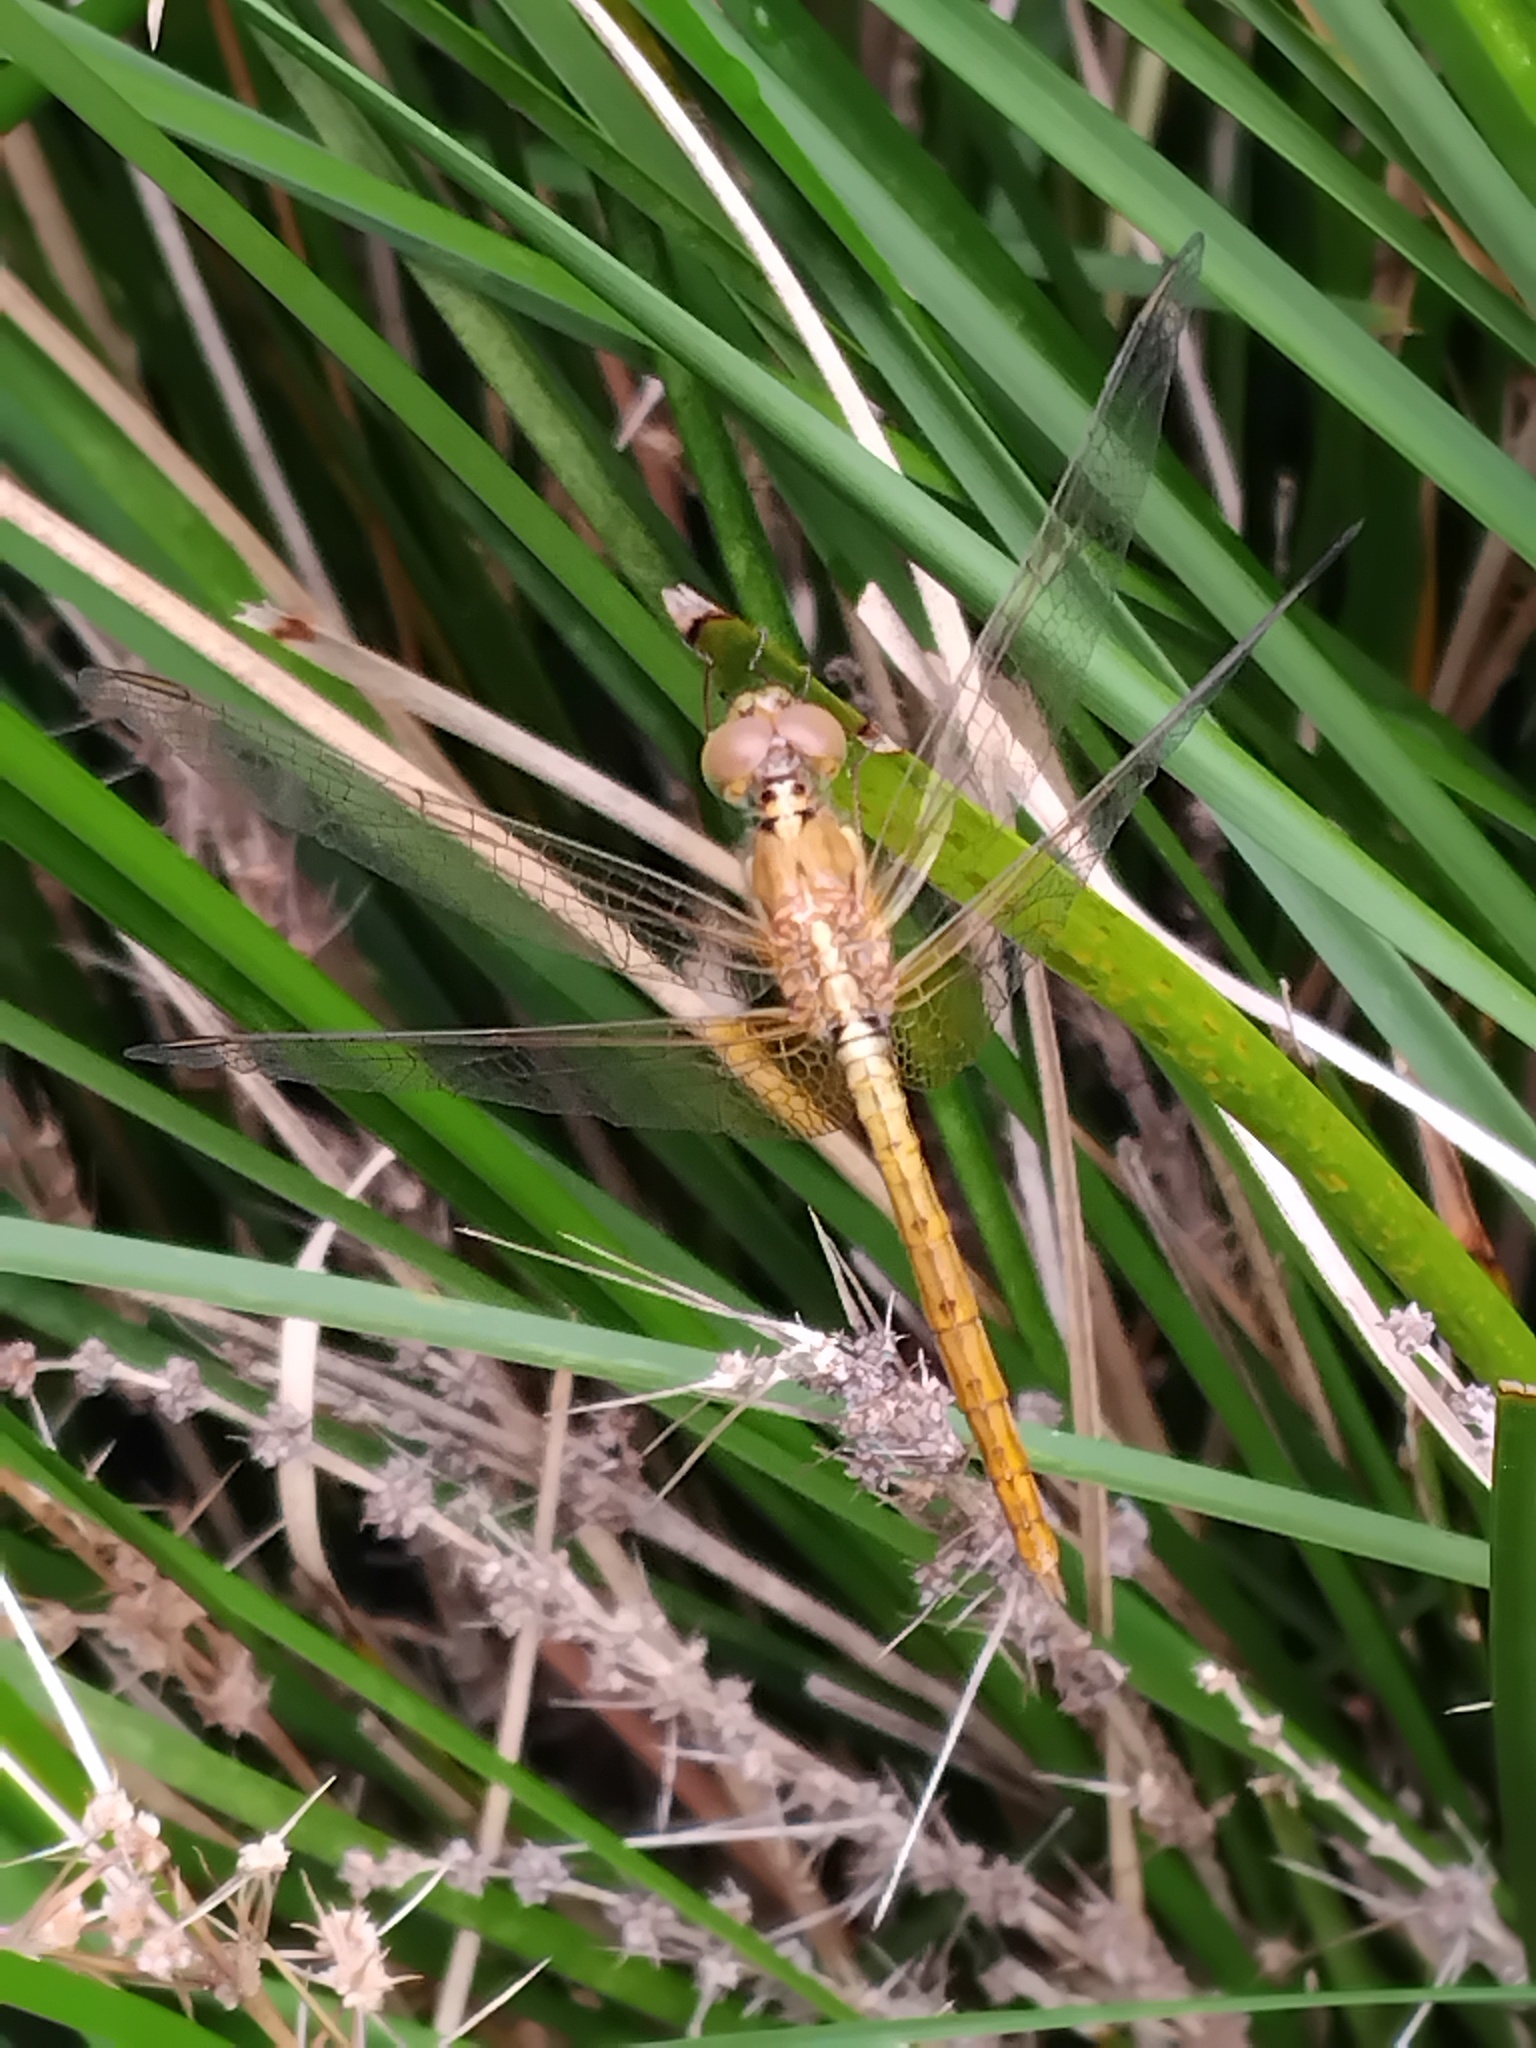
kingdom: Animalia
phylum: Arthropoda
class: Insecta
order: Odonata
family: Libellulidae
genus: Diplacodes
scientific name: Diplacodes haematodes
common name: Scarlet percher
